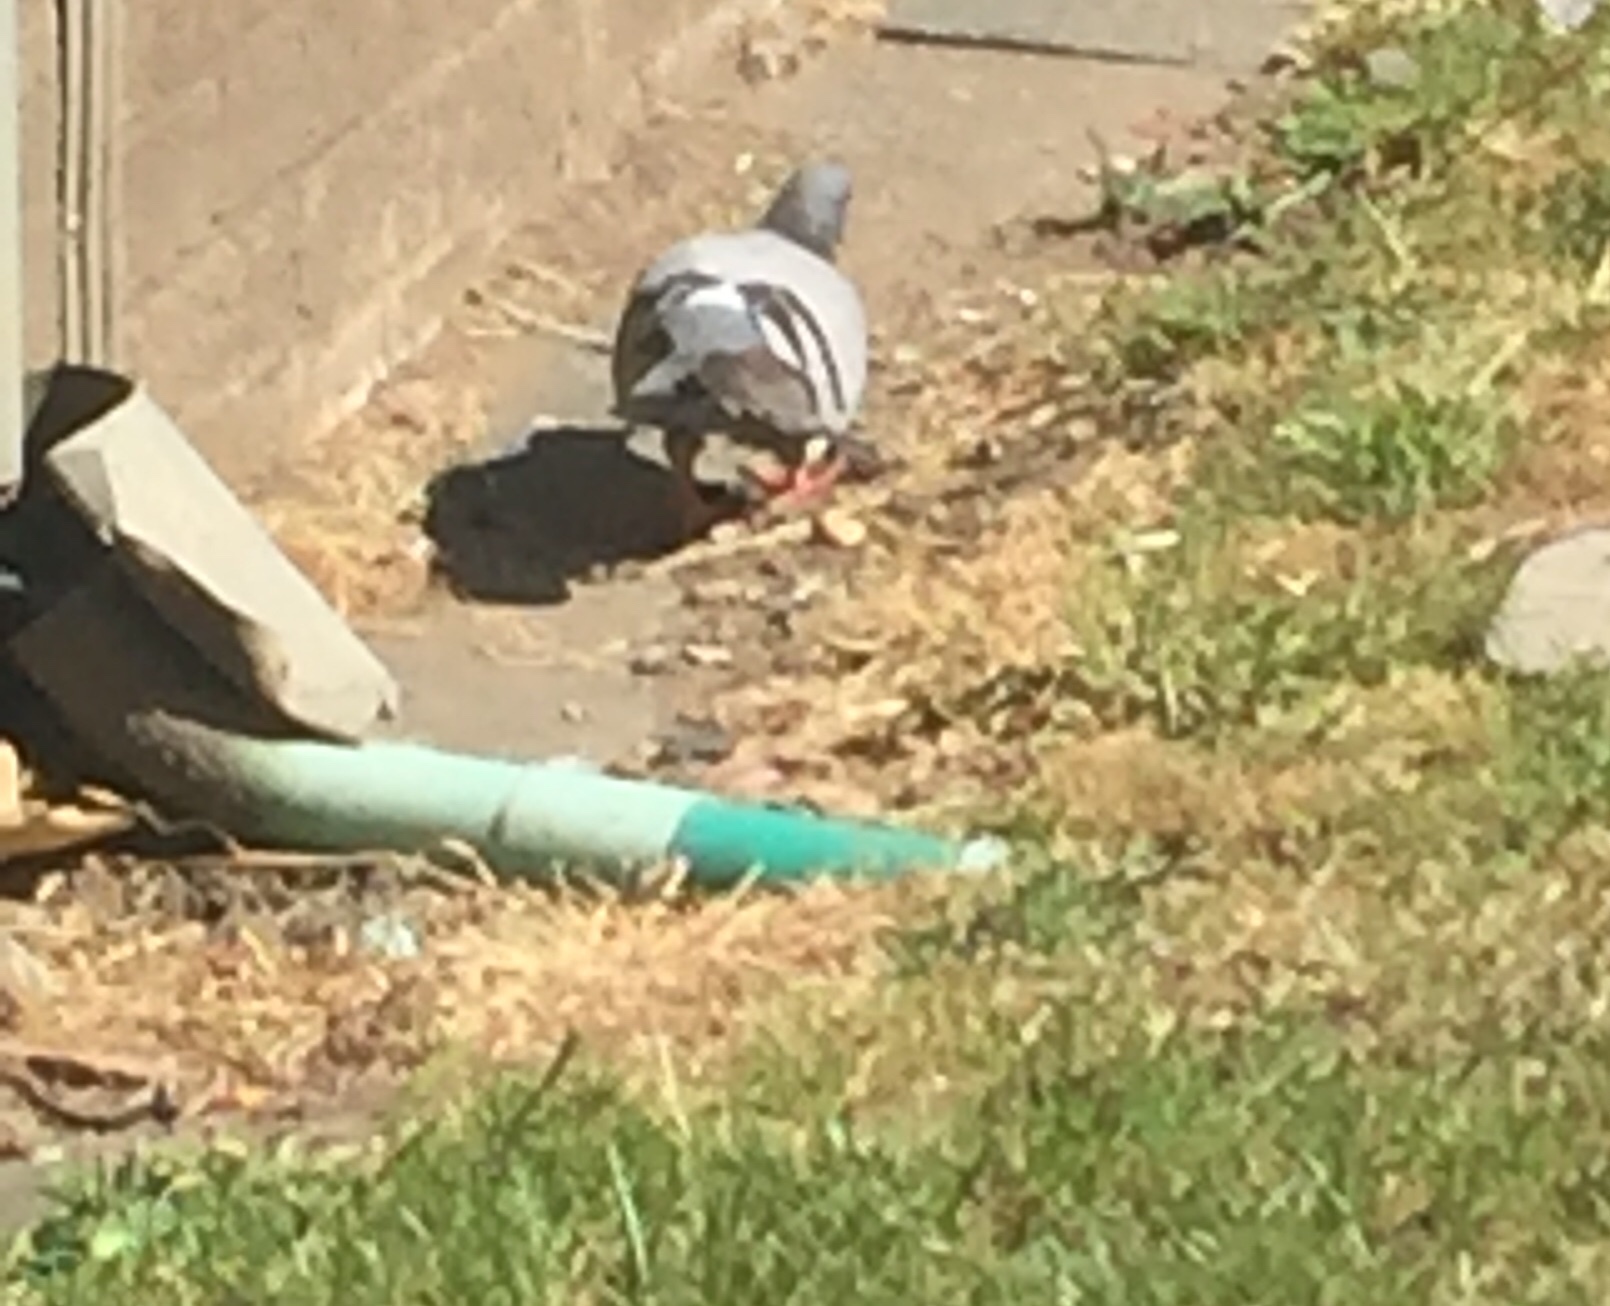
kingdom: Animalia
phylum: Chordata
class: Aves
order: Columbiformes
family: Columbidae
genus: Columba
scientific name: Columba livia
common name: Rock pigeon
